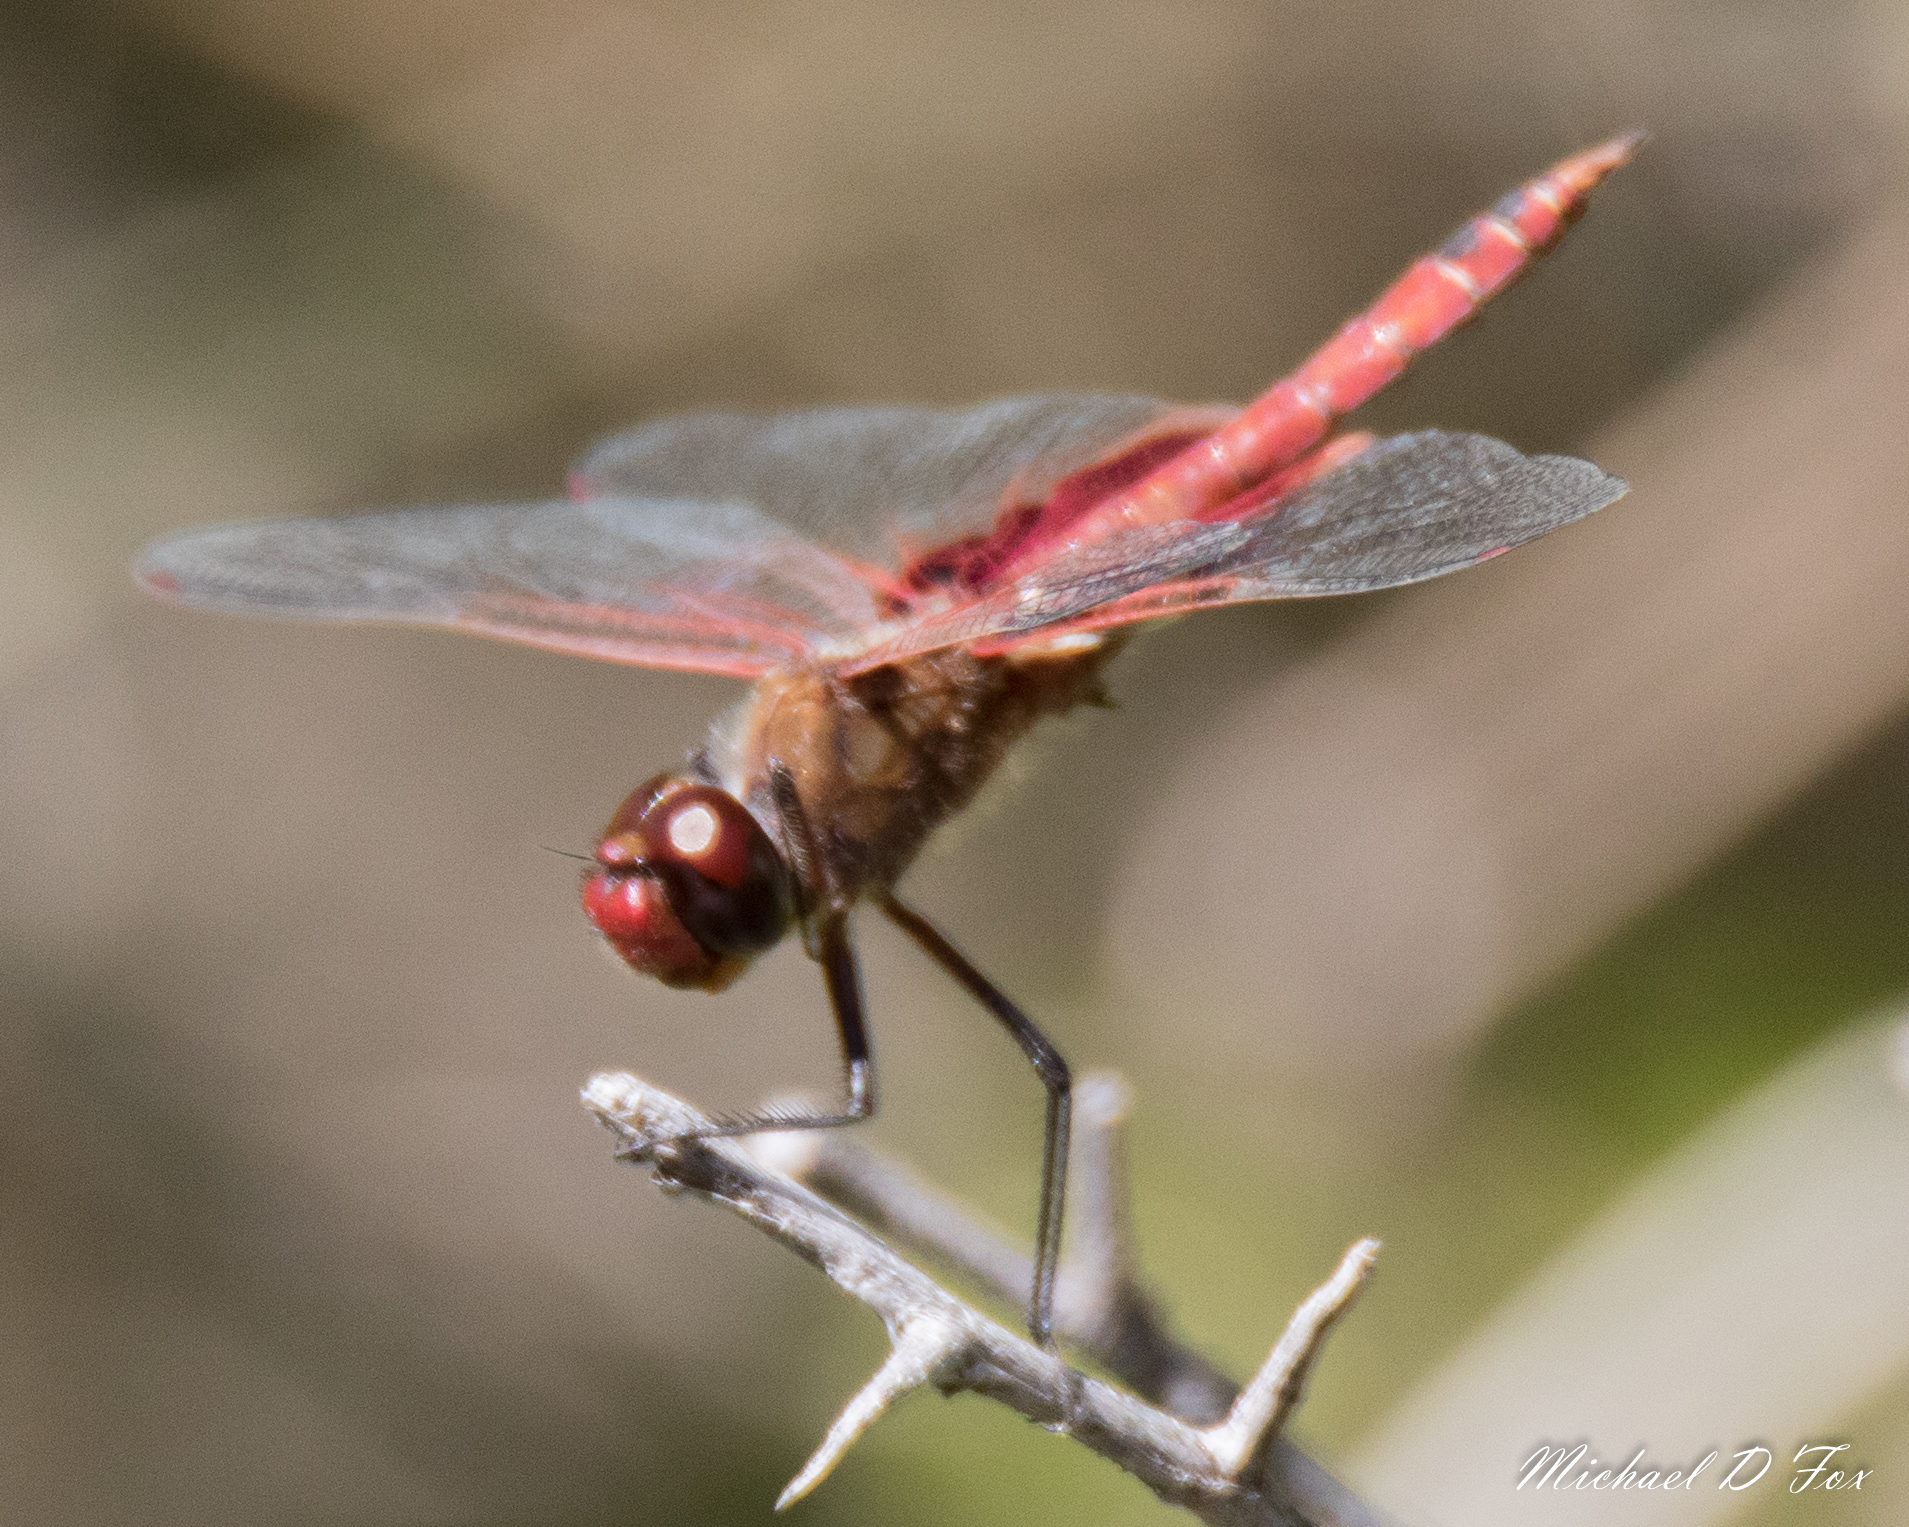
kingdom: Animalia
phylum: Arthropoda
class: Insecta
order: Odonata
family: Libellulidae
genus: Tramea
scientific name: Tramea onusta
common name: Red saddlebags
